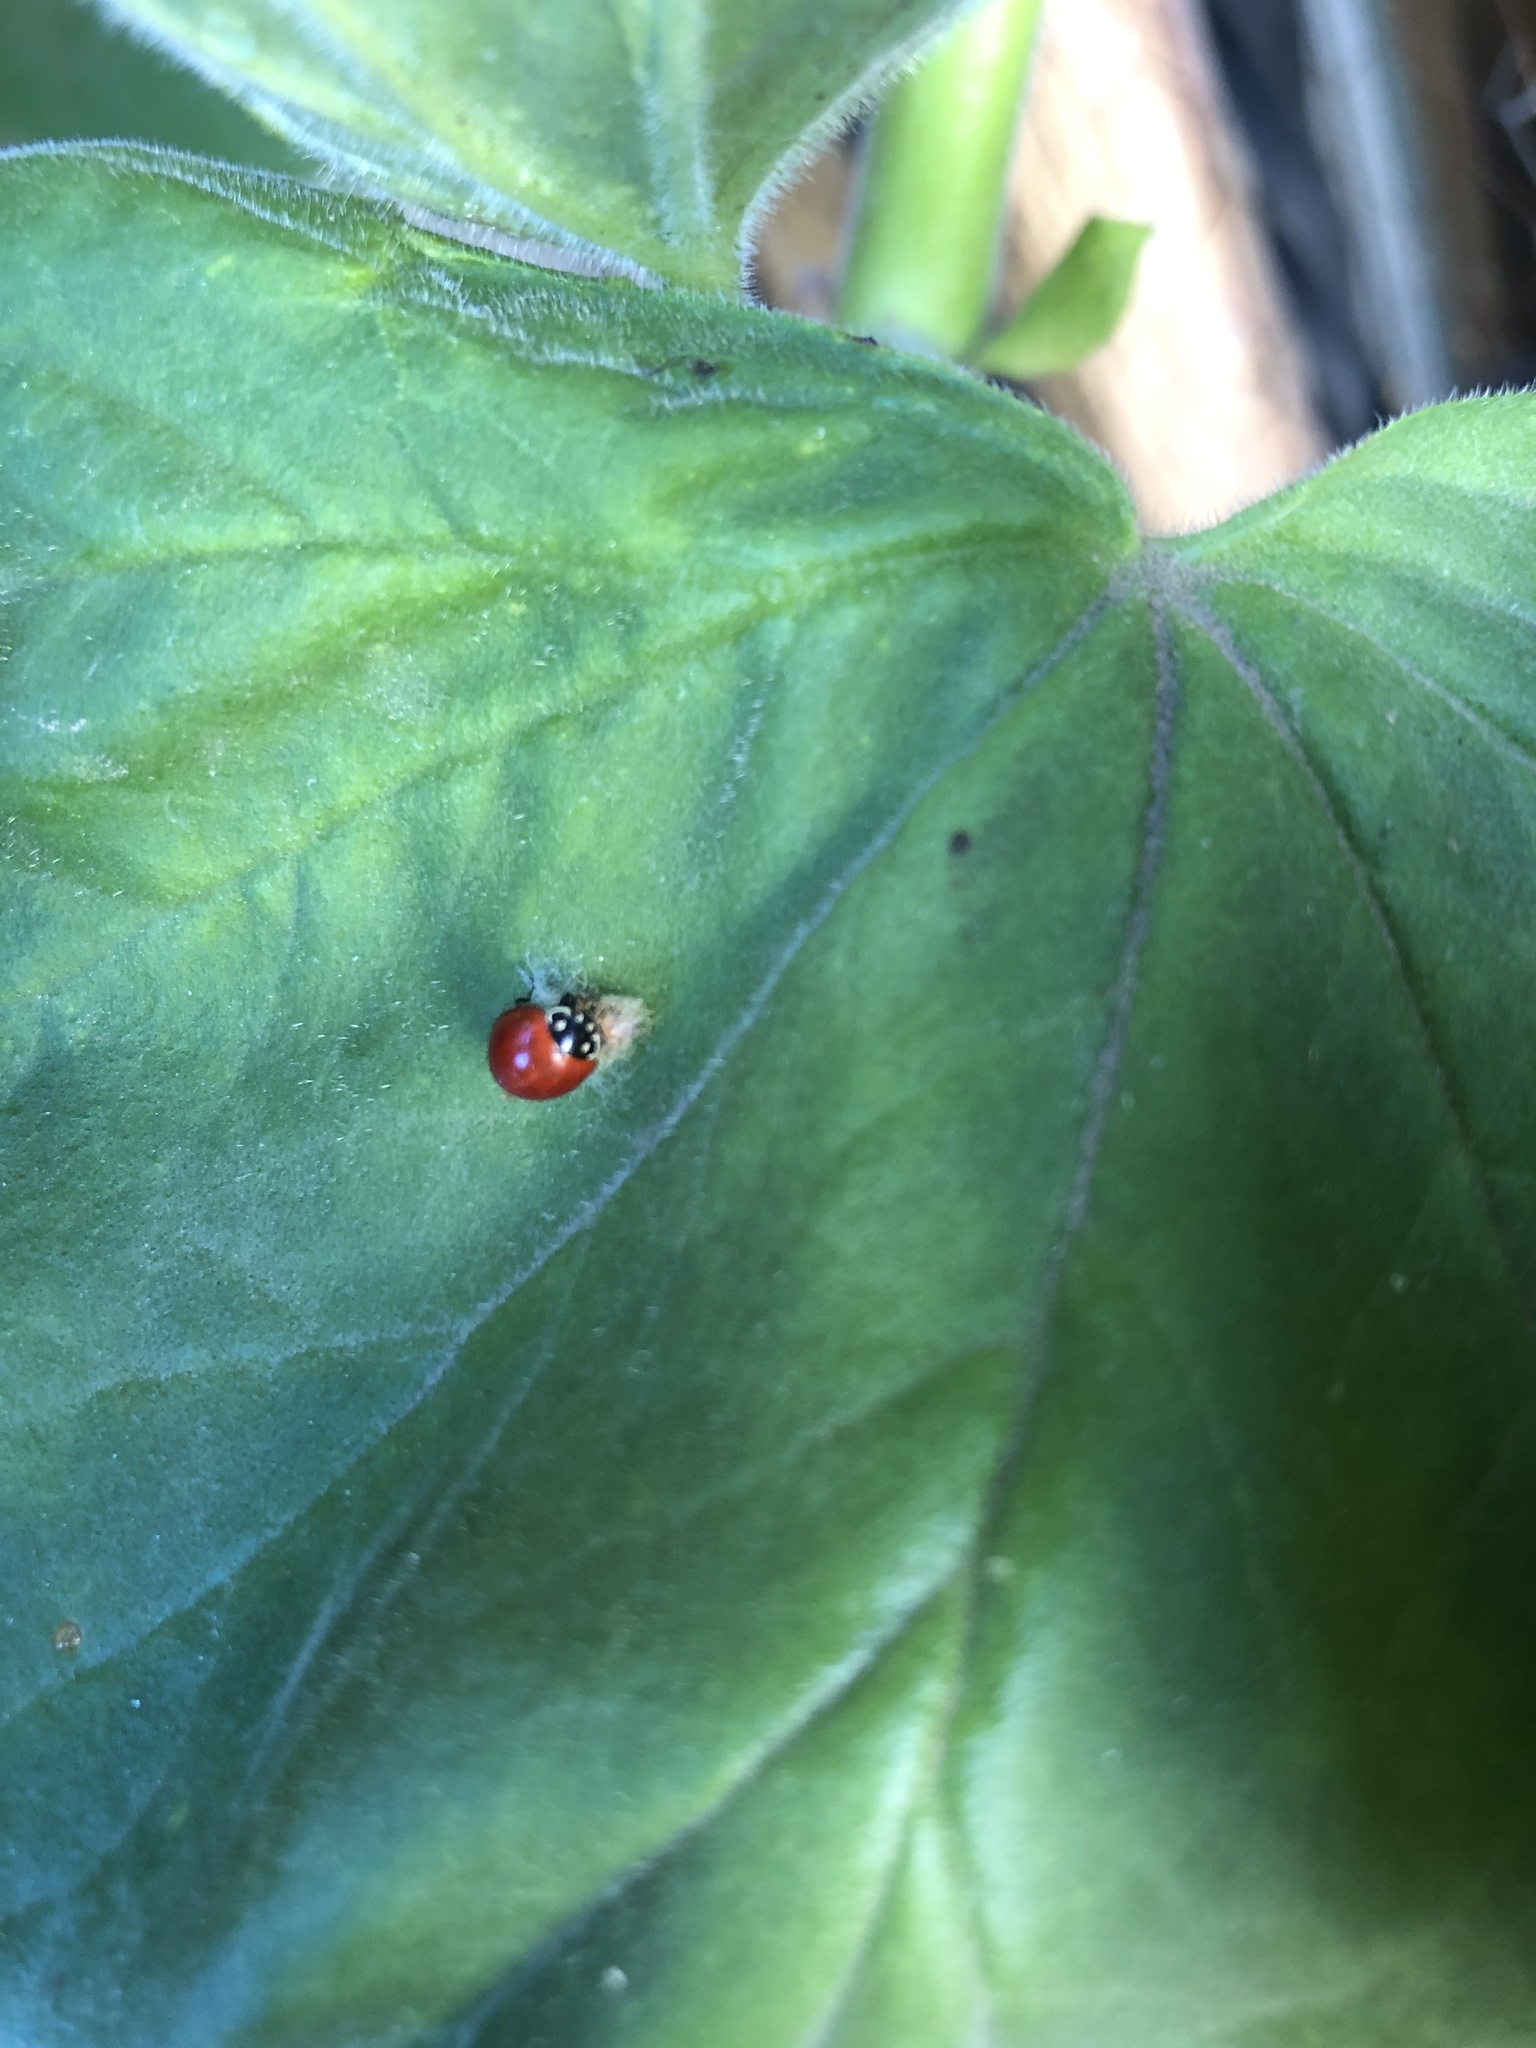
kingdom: Animalia
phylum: Arthropoda
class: Insecta
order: Coleoptera
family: Coccinellidae
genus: Cycloneda
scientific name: Cycloneda sanguinea
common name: Ladybird beetle
